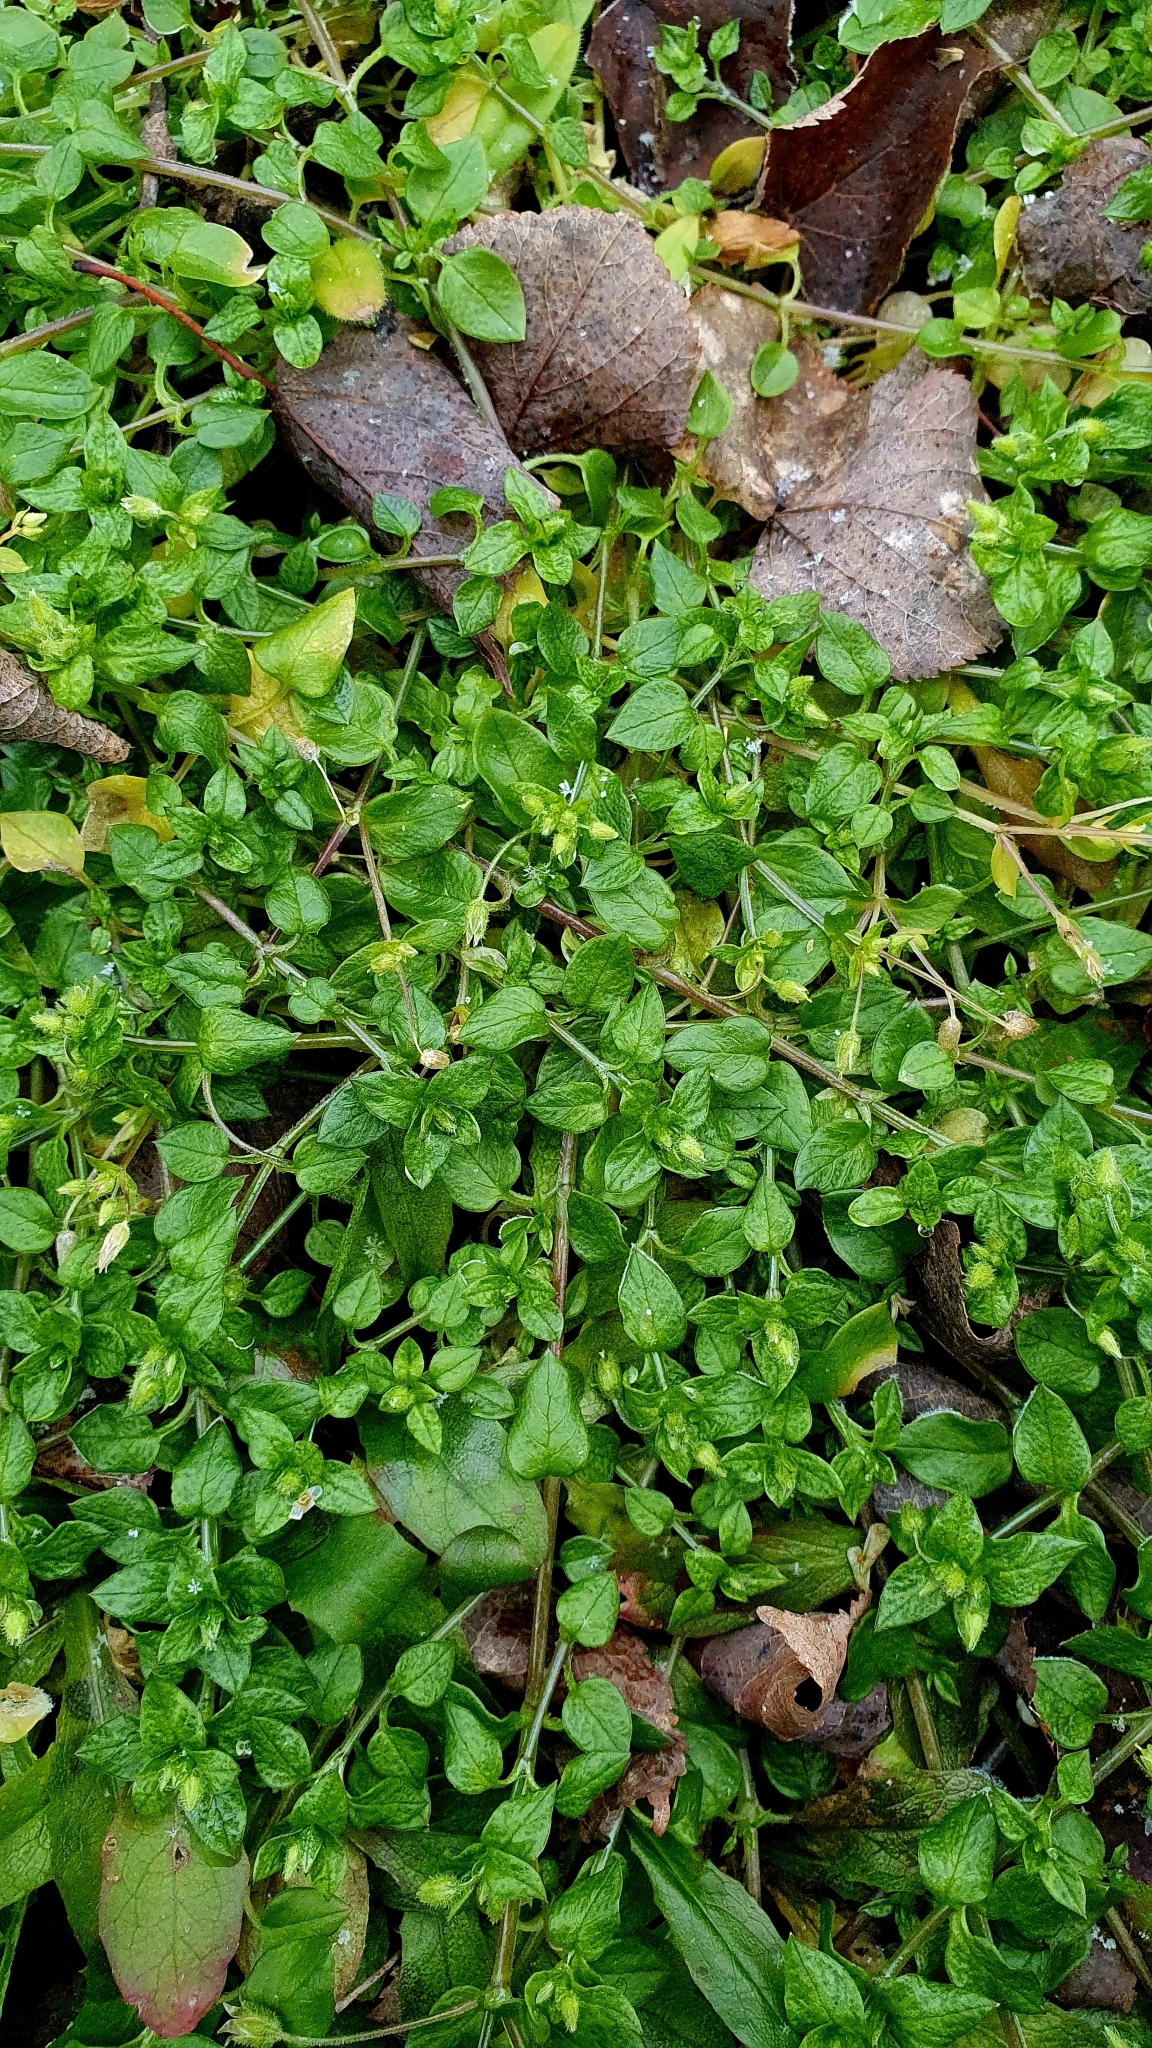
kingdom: Plantae
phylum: Tracheophyta
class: Magnoliopsida
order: Caryophyllales
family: Caryophyllaceae
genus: Stellaria
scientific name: Stellaria media
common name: Common chickweed
